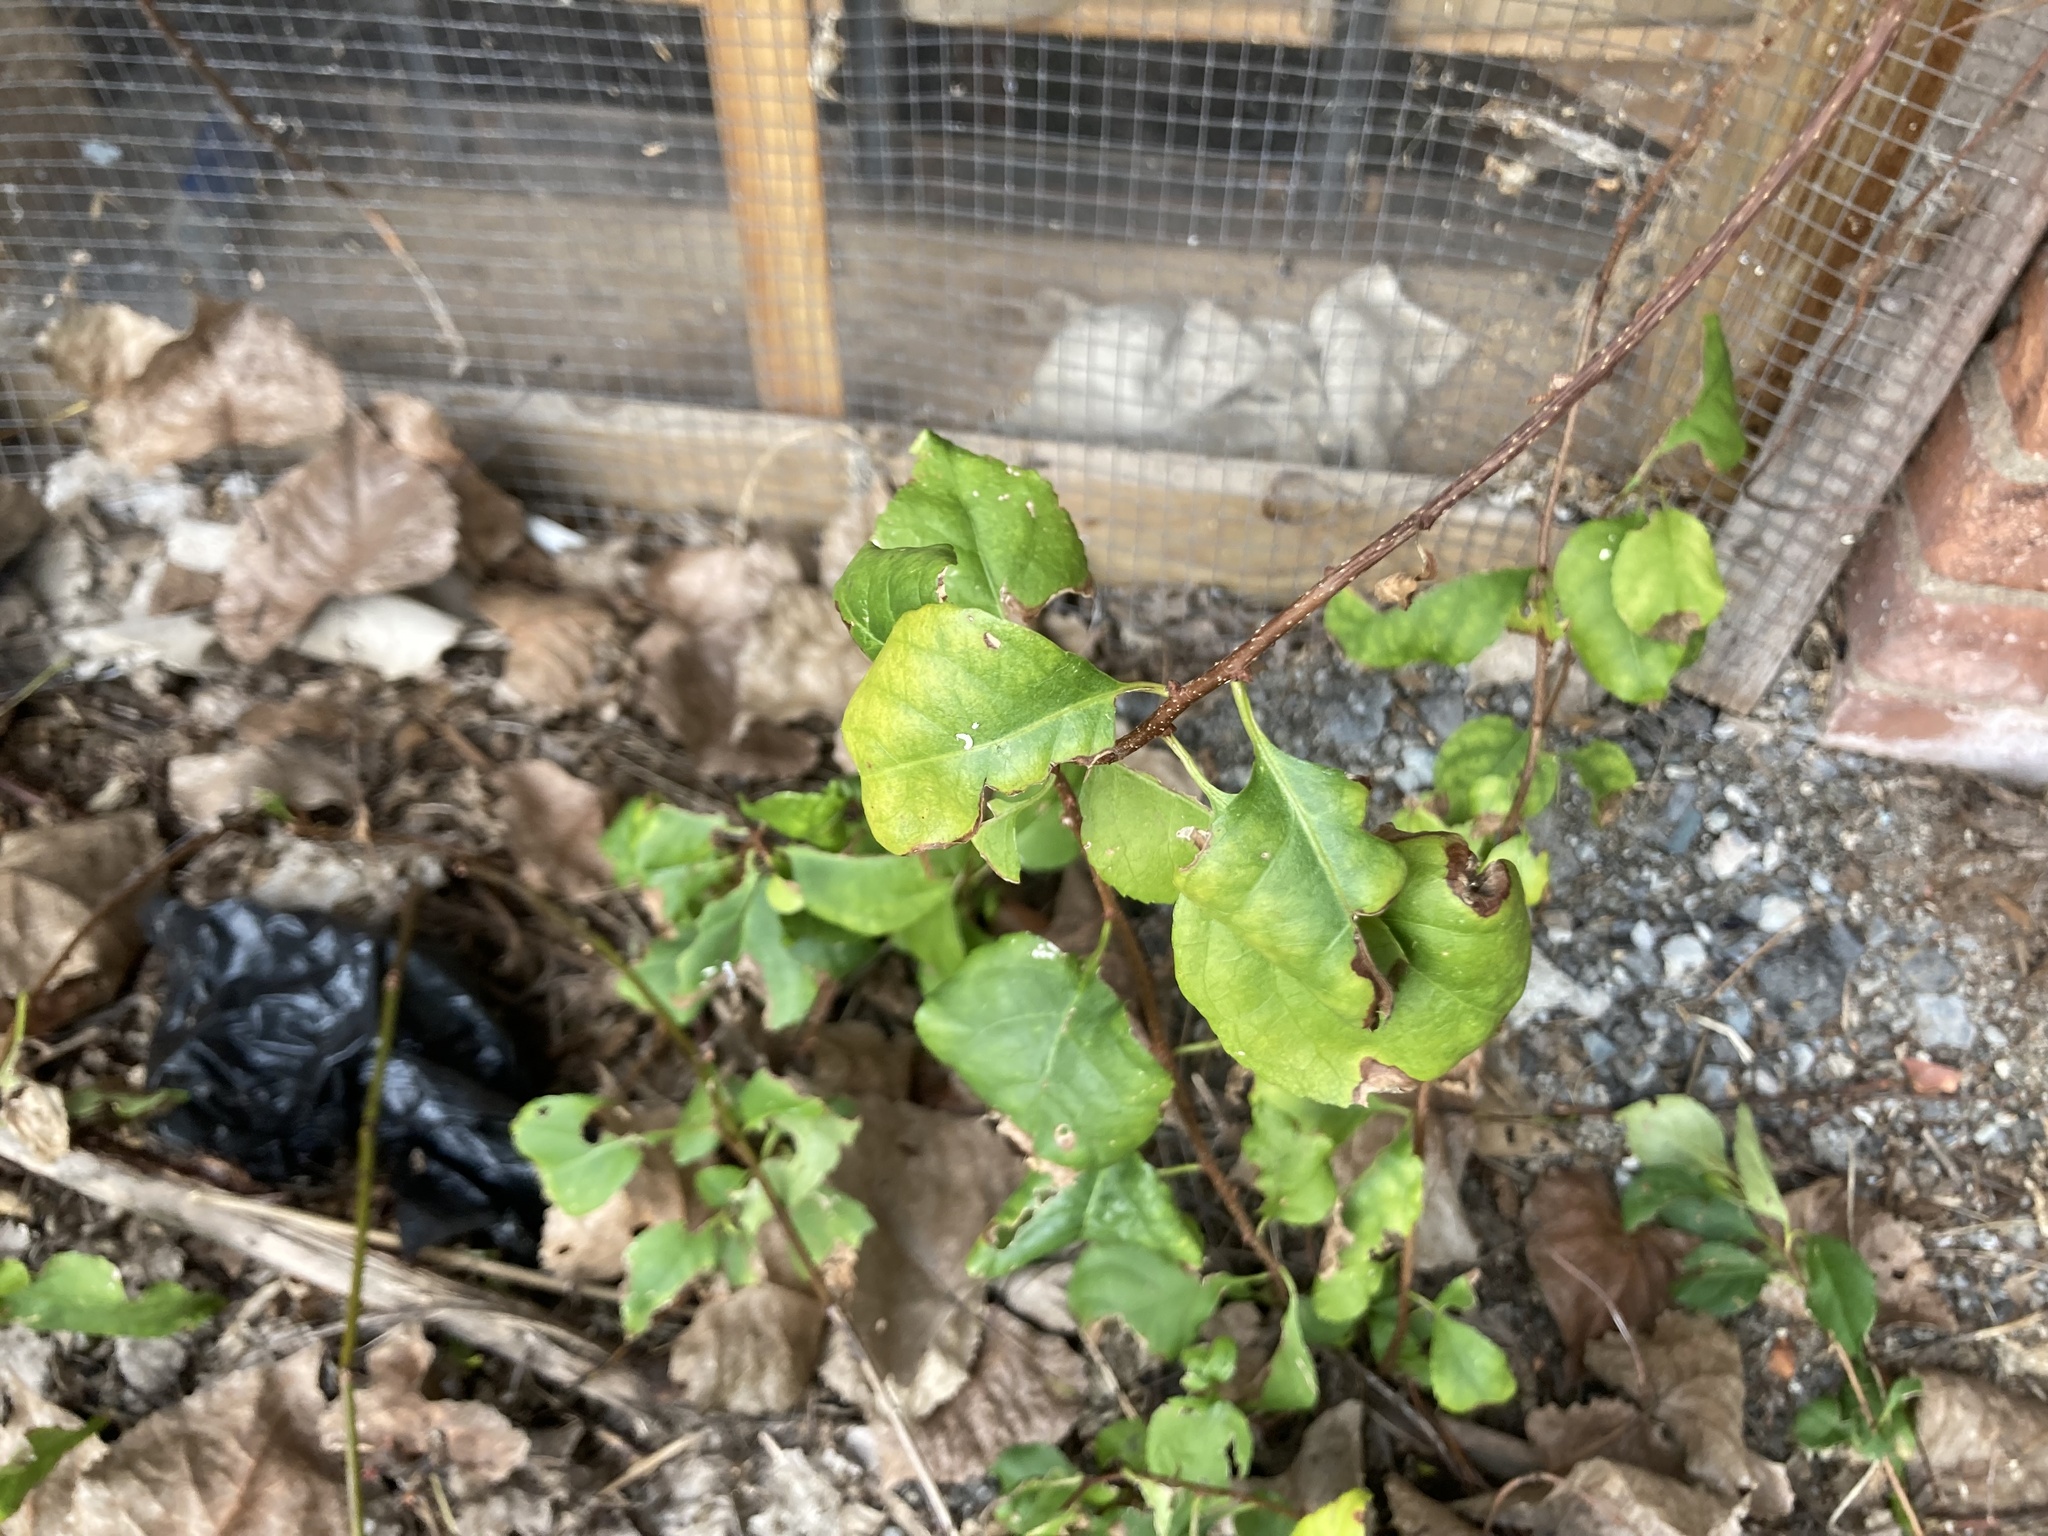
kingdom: Plantae
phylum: Tracheophyta
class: Magnoliopsida
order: Celastrales
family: Celastraceae
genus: Celastrus
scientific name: Celastrus orbiculatus
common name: Oriental bittersweet
